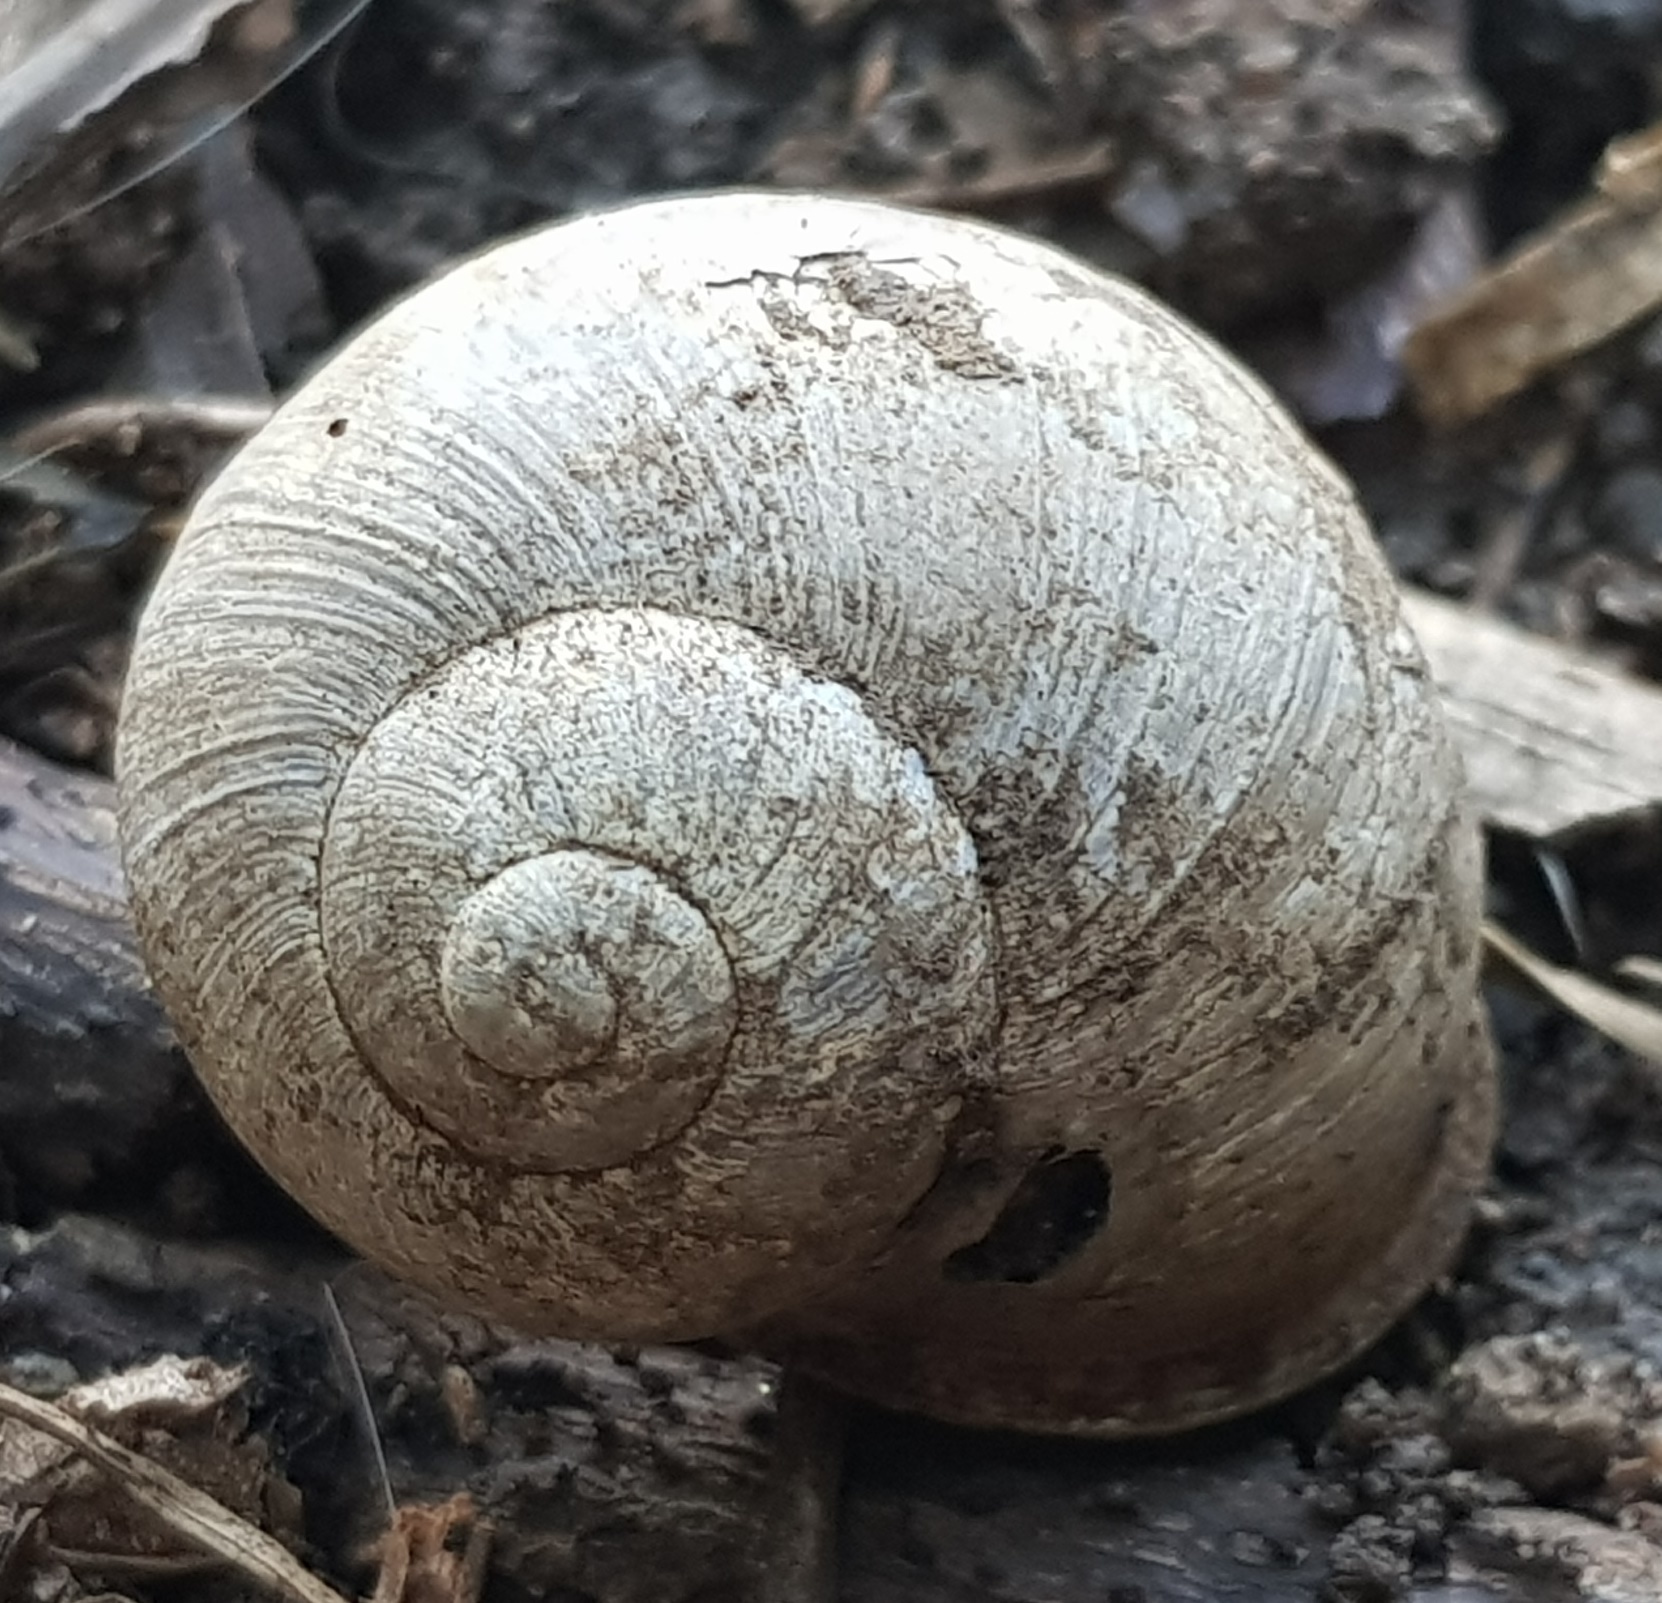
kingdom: Animalia
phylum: Mollusca
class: Gastropoda
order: Stylommatophora
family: Helicidae
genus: Cornu
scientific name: Cornu aspersum
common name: Brown garden snail
